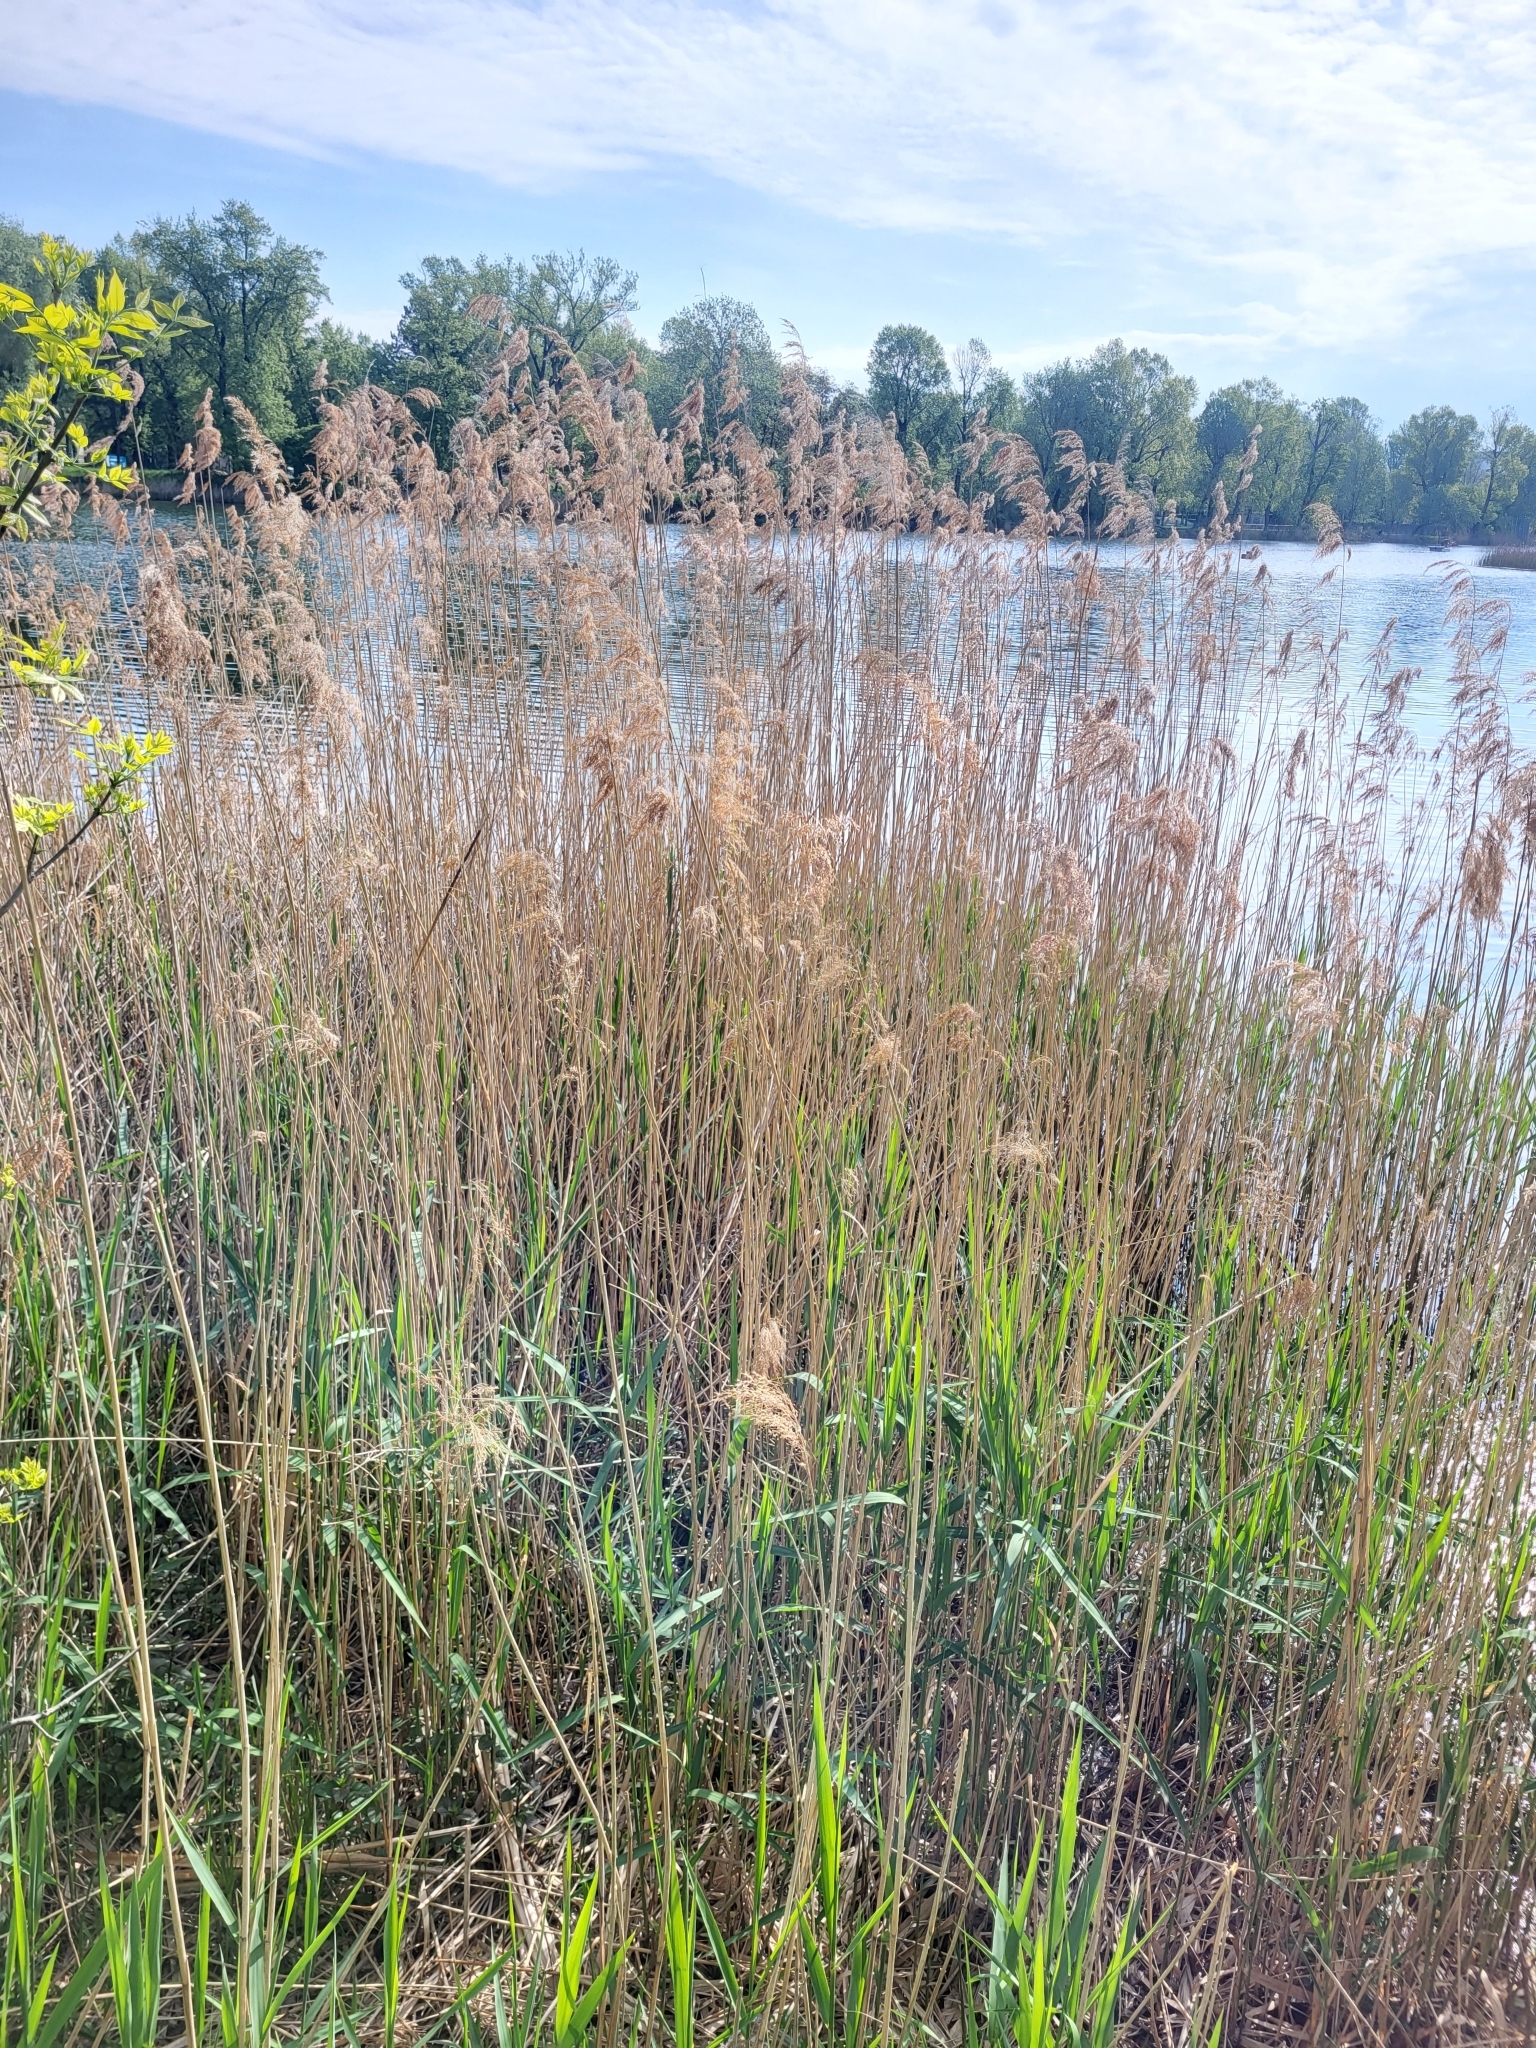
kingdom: Plantae
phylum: Tracheophyta
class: Liliopsida
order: Poales
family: Poaceae
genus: Phragmites
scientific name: Phragmites australis
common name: Common reed
